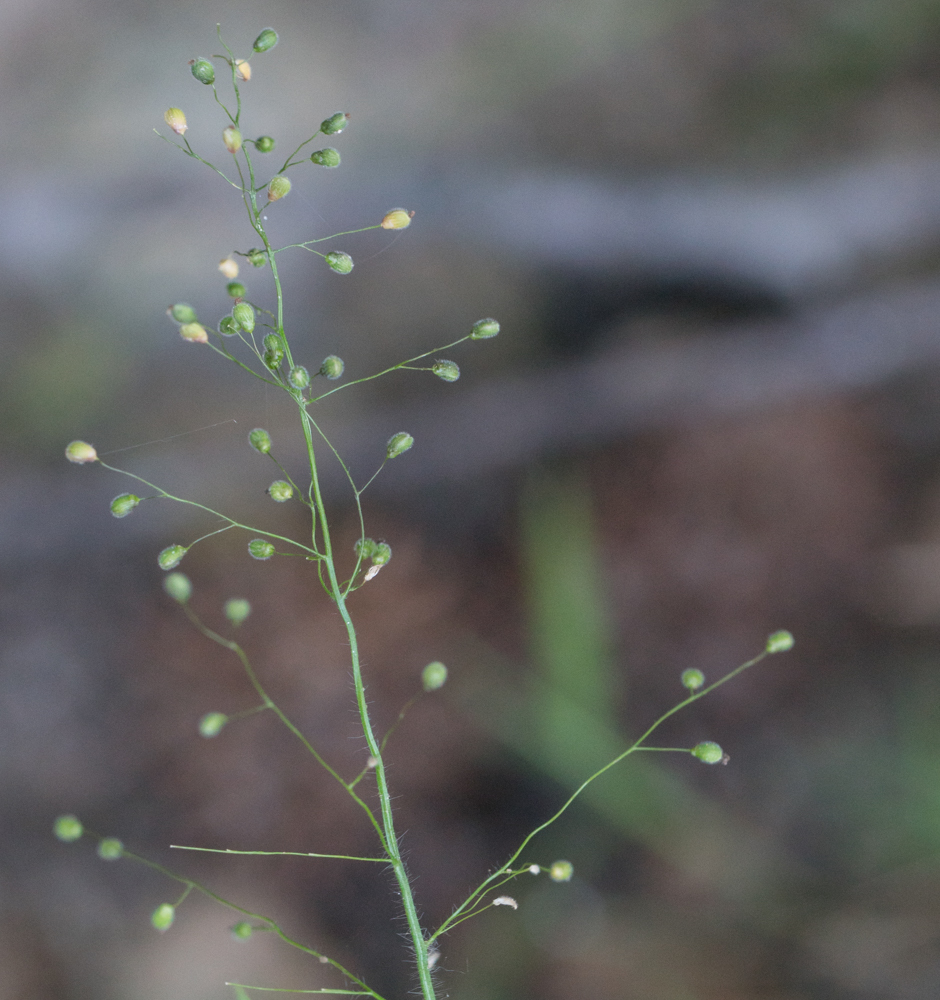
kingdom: Plantae
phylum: Tracheophyta
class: Liliopsida
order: Poales
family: Poaceae
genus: Dichanthelium
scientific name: Dichanthelium laxiflorum
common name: Soft-tuft panic grass
